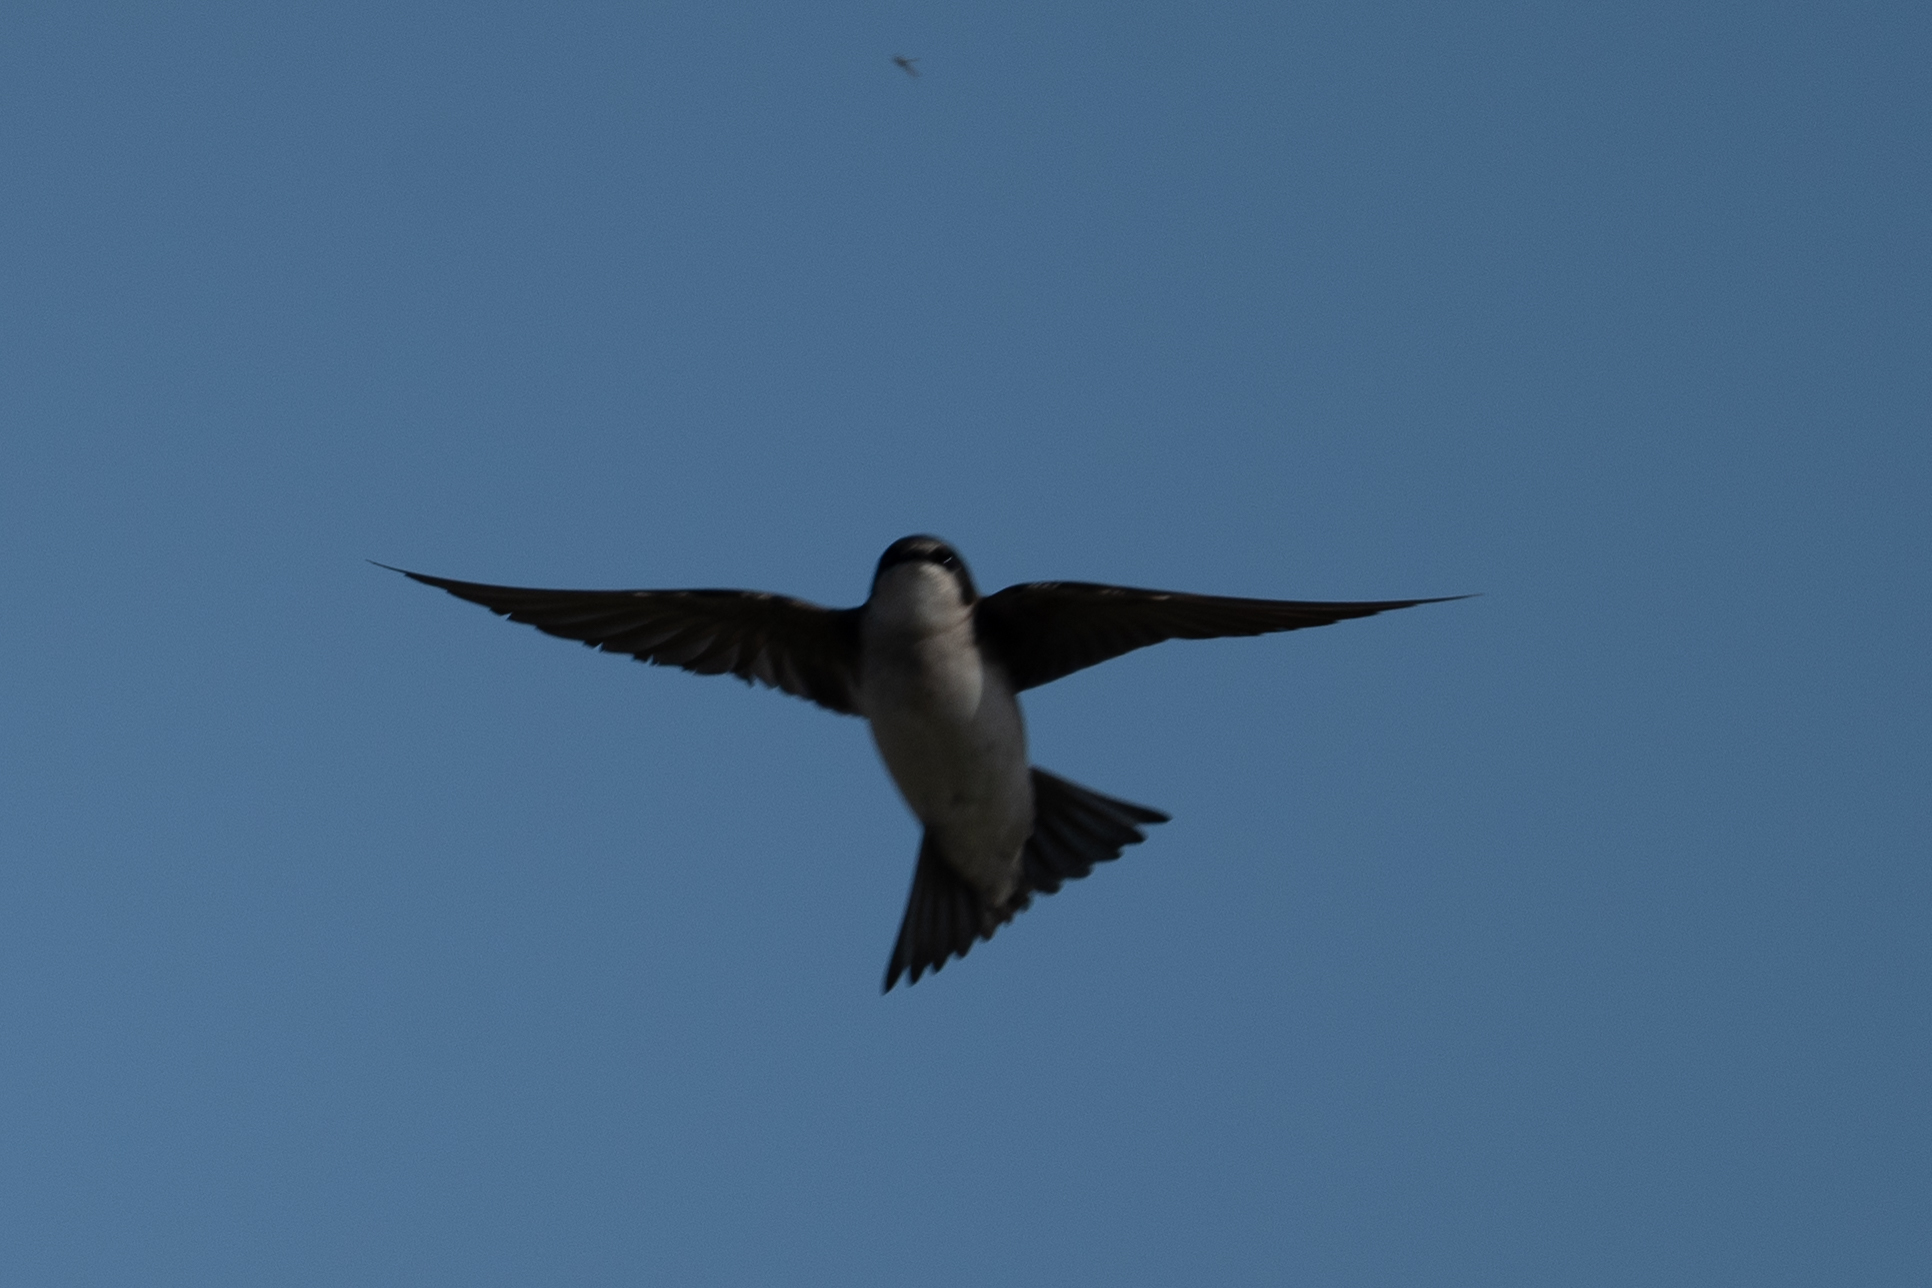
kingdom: Animalia
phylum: Chordata
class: Aves
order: Passeriformes
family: Hirundinidae
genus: Tachycineta
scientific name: Tachycineta bicolor
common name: Tree swallow
